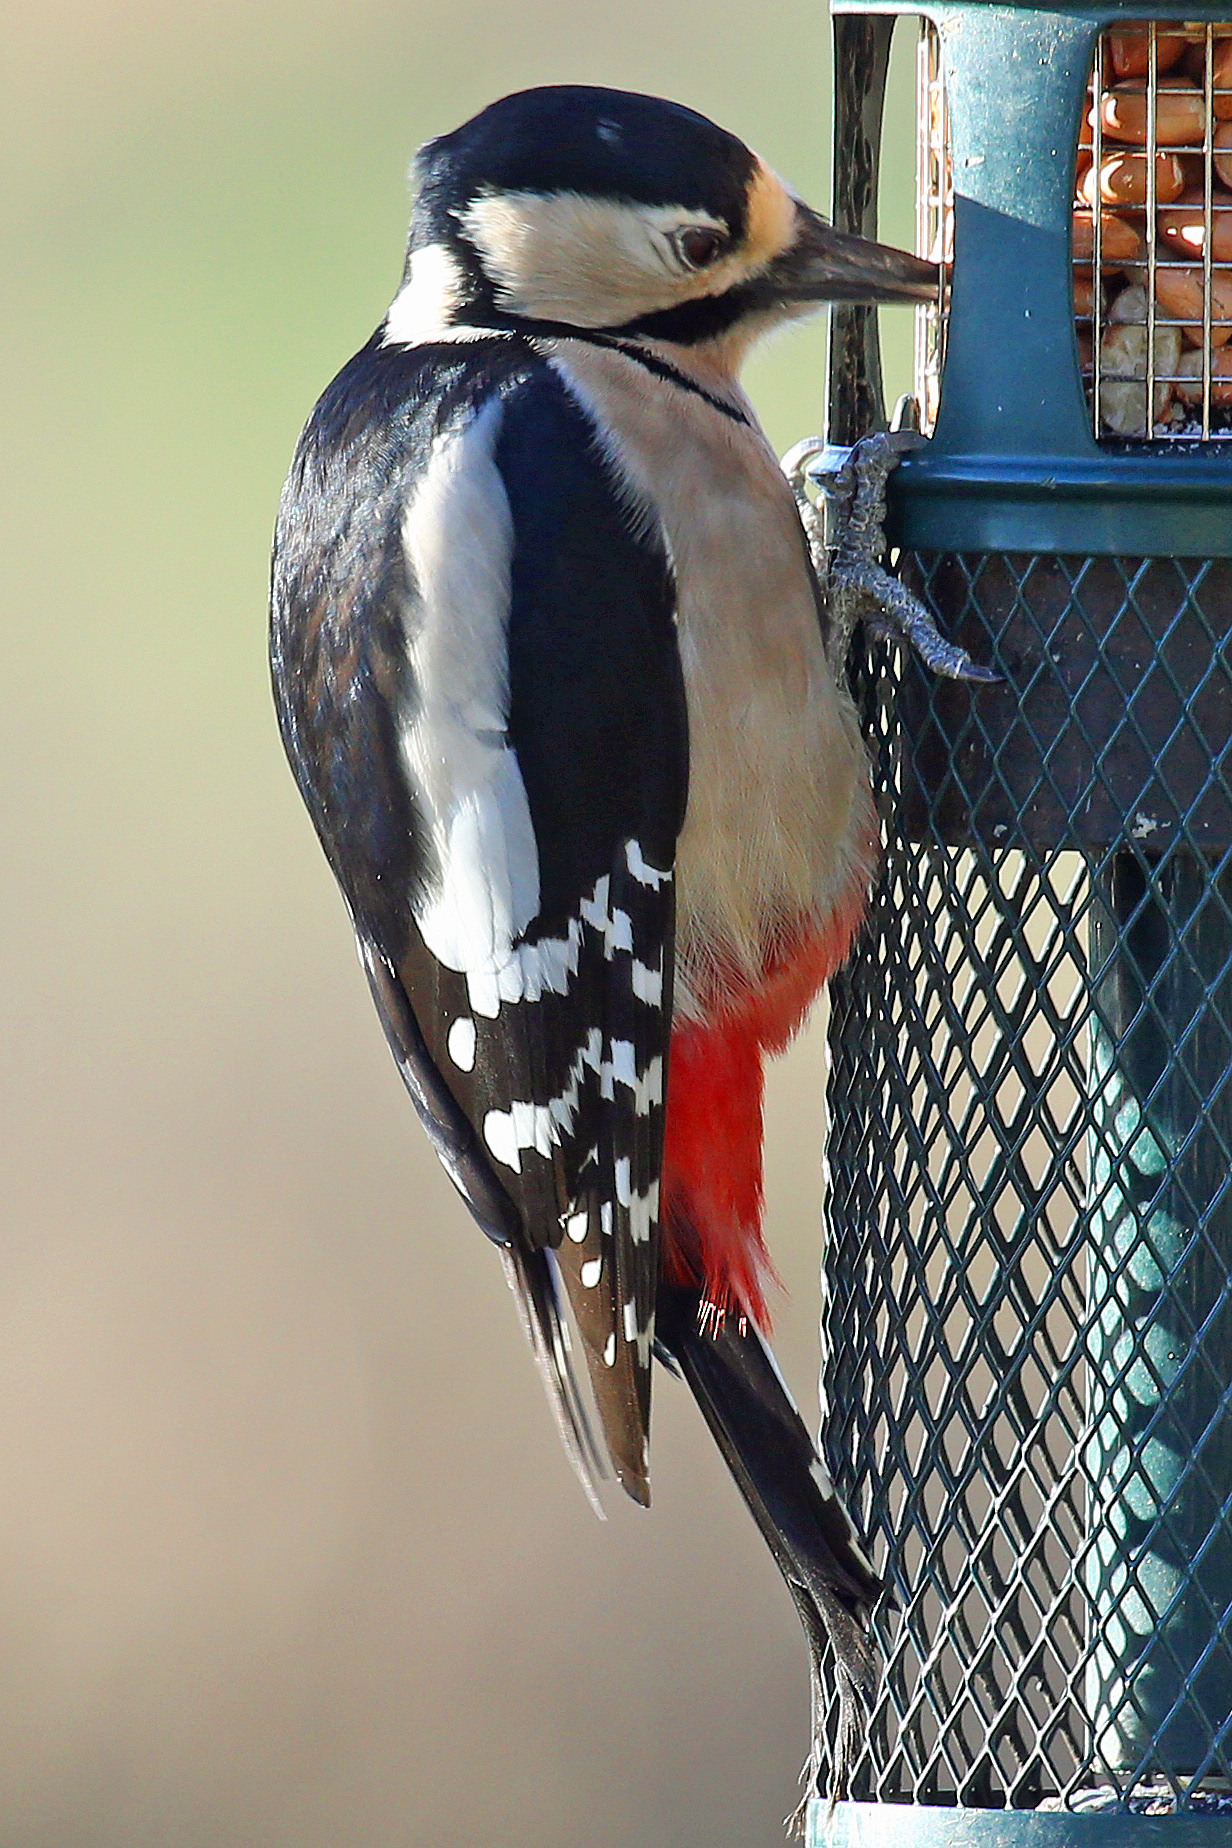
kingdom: Animalia
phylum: Chordata
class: Aves
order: Piciformes
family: Picidae
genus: Dendrocopos
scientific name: Dendrocopos major
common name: Great spotted woodpecker
